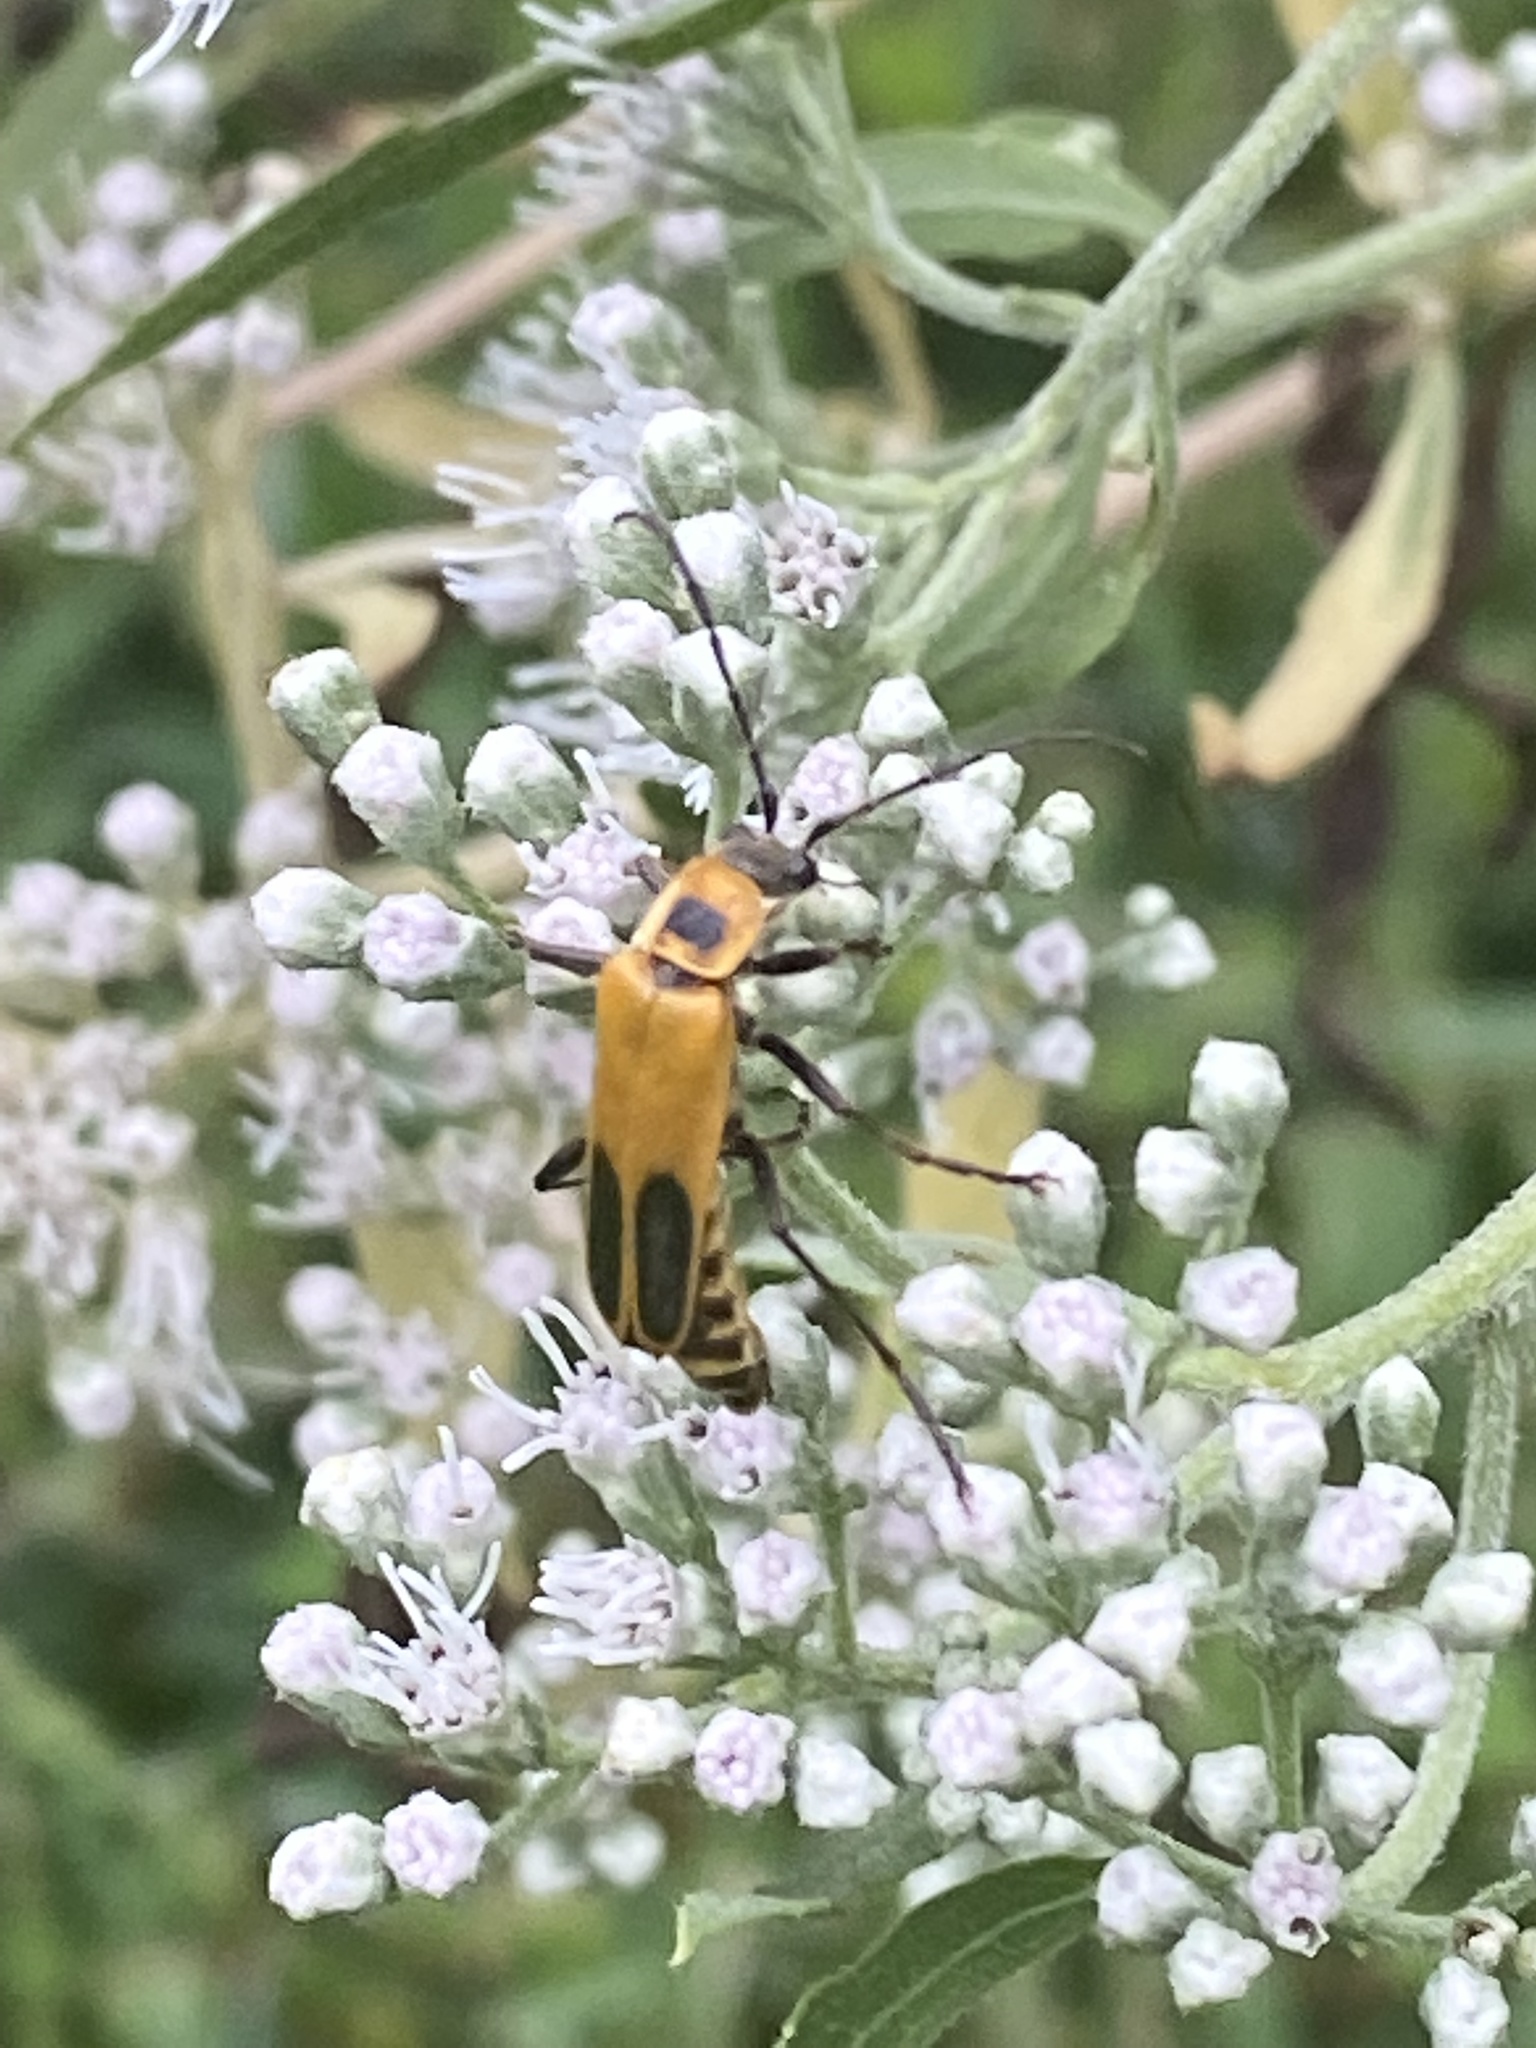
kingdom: Animalia
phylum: Arthropoda
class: Insecta
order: Coleoptera
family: Cantharidae
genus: Chauliognathus
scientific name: Chauliognathus pensylvanicus
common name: Goldenrod soldier beetle
